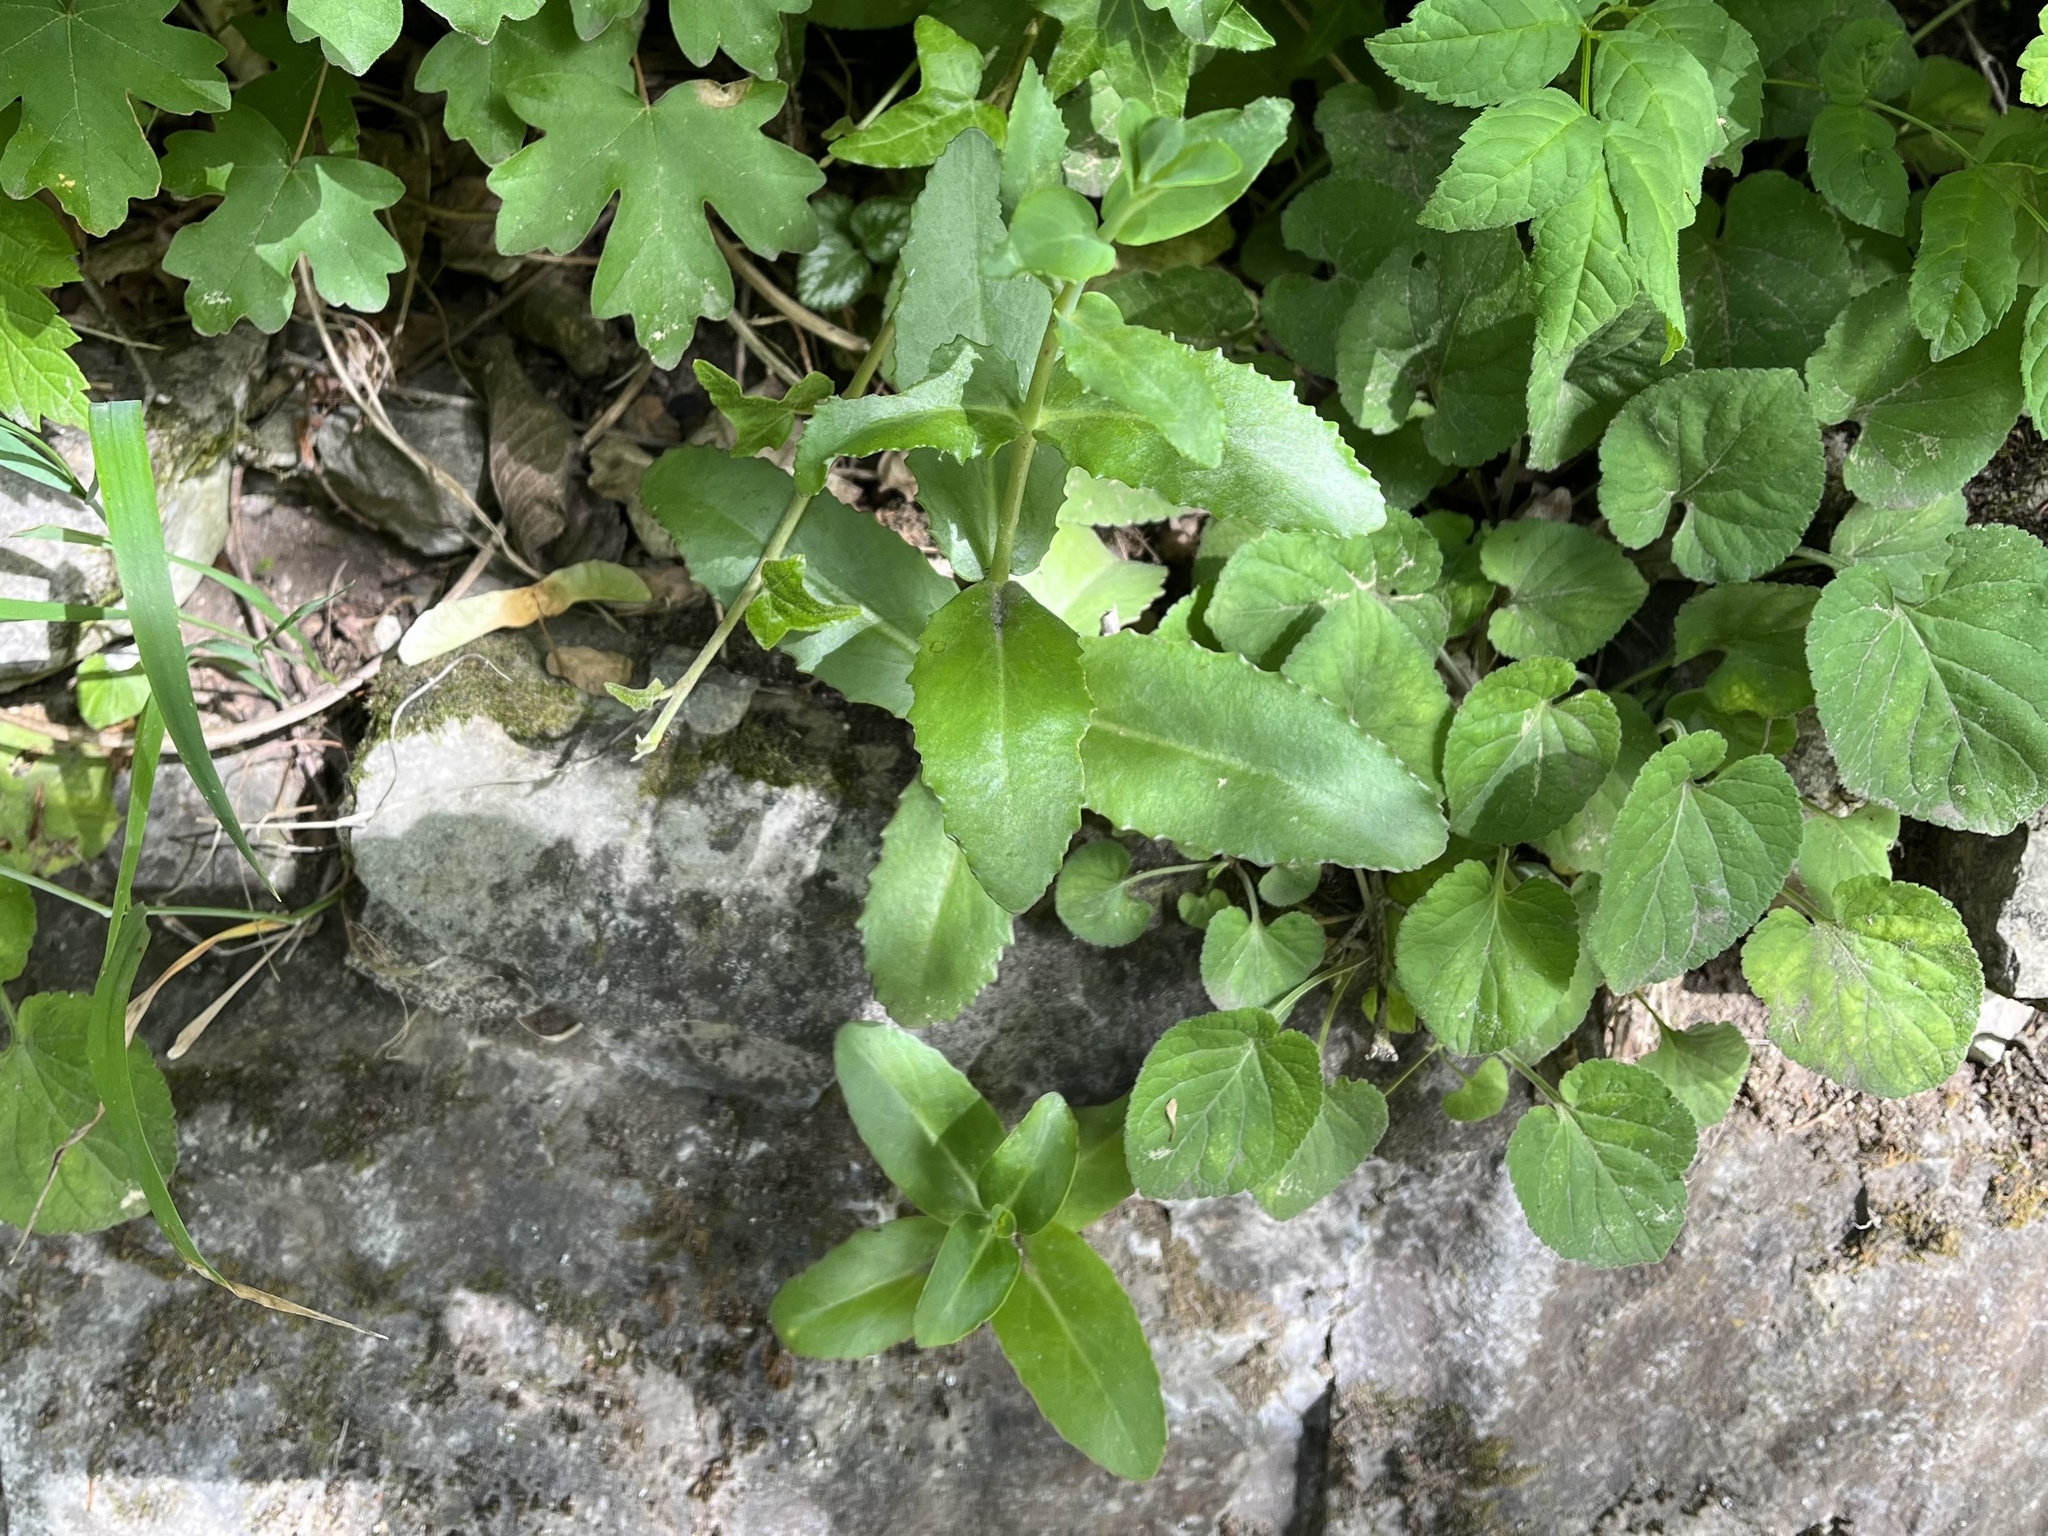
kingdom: Plantae
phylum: Tracheophyta
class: Magnoliopsida
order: Saxifragales
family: Crassulaceae
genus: Hylotelephium
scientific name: Hylotelephium maximum
